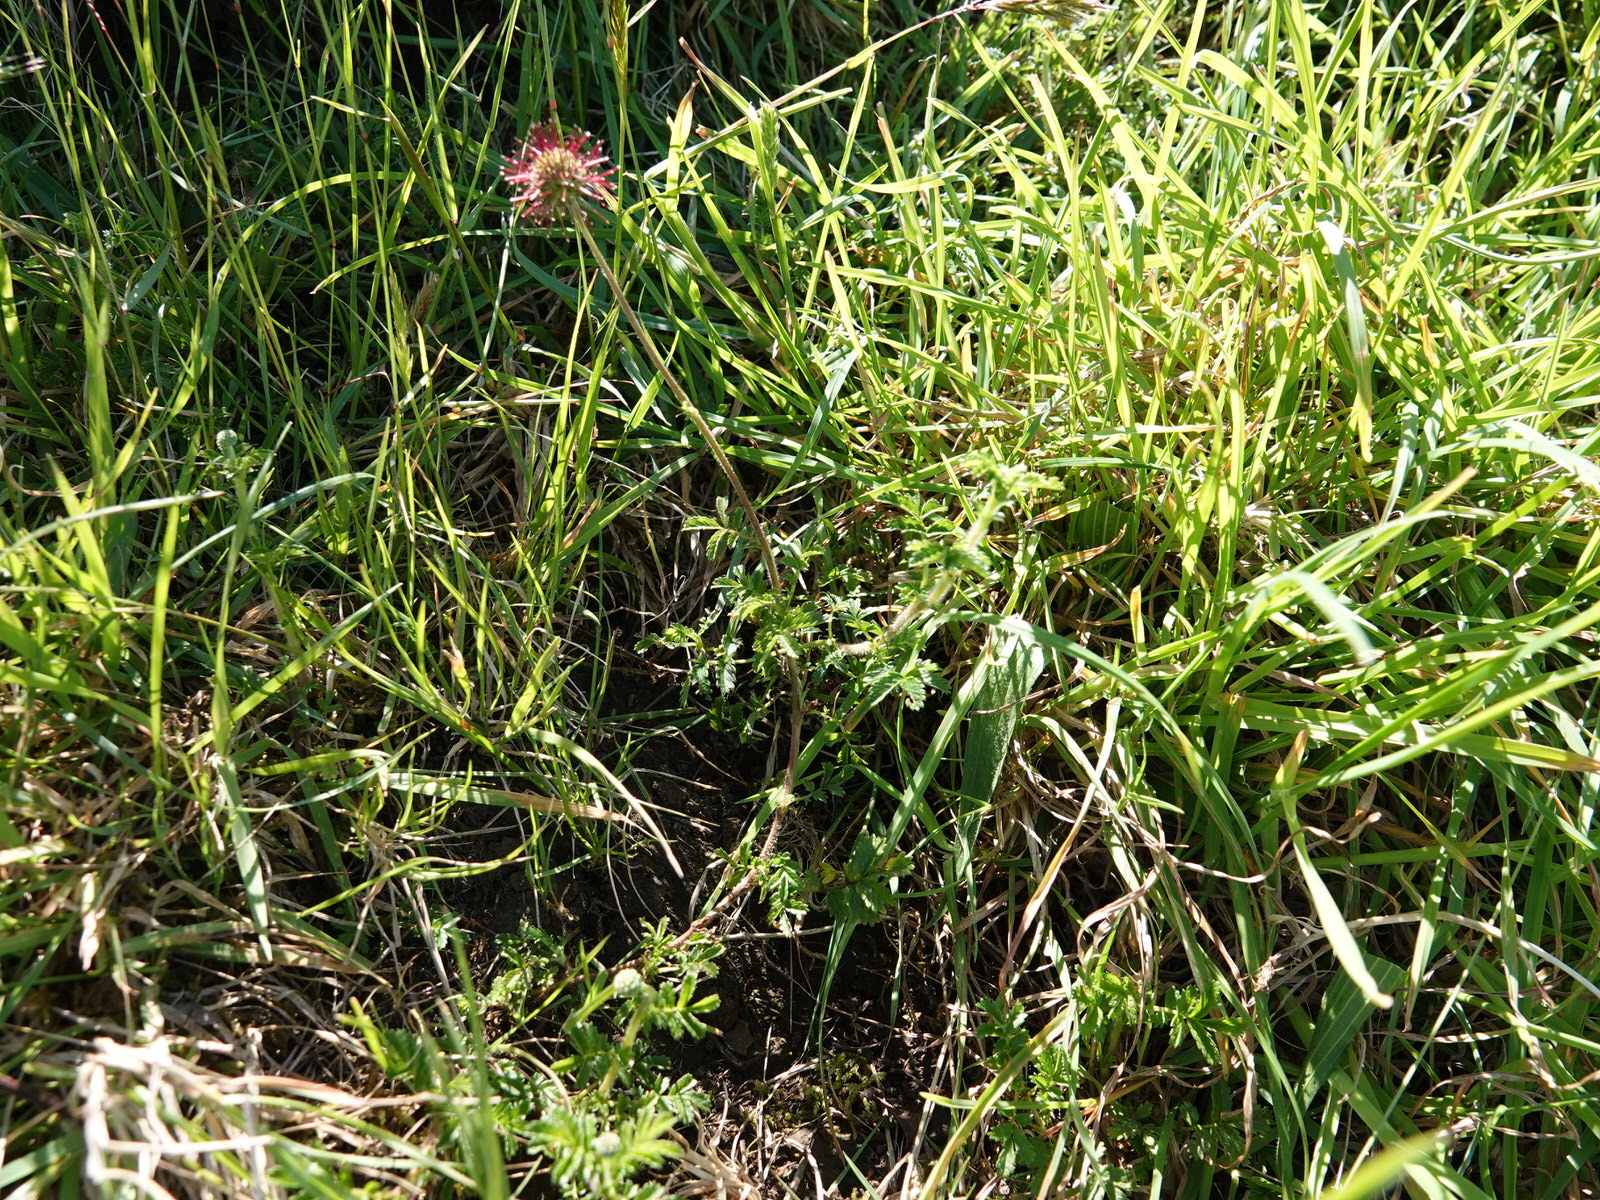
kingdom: Plantae
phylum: Tracheophyta
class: Magnoliopsida
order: Rosales
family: Rosaceae
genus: Acaena
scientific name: Acaena novae-zelandiae
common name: Pirri-pirri-bur
